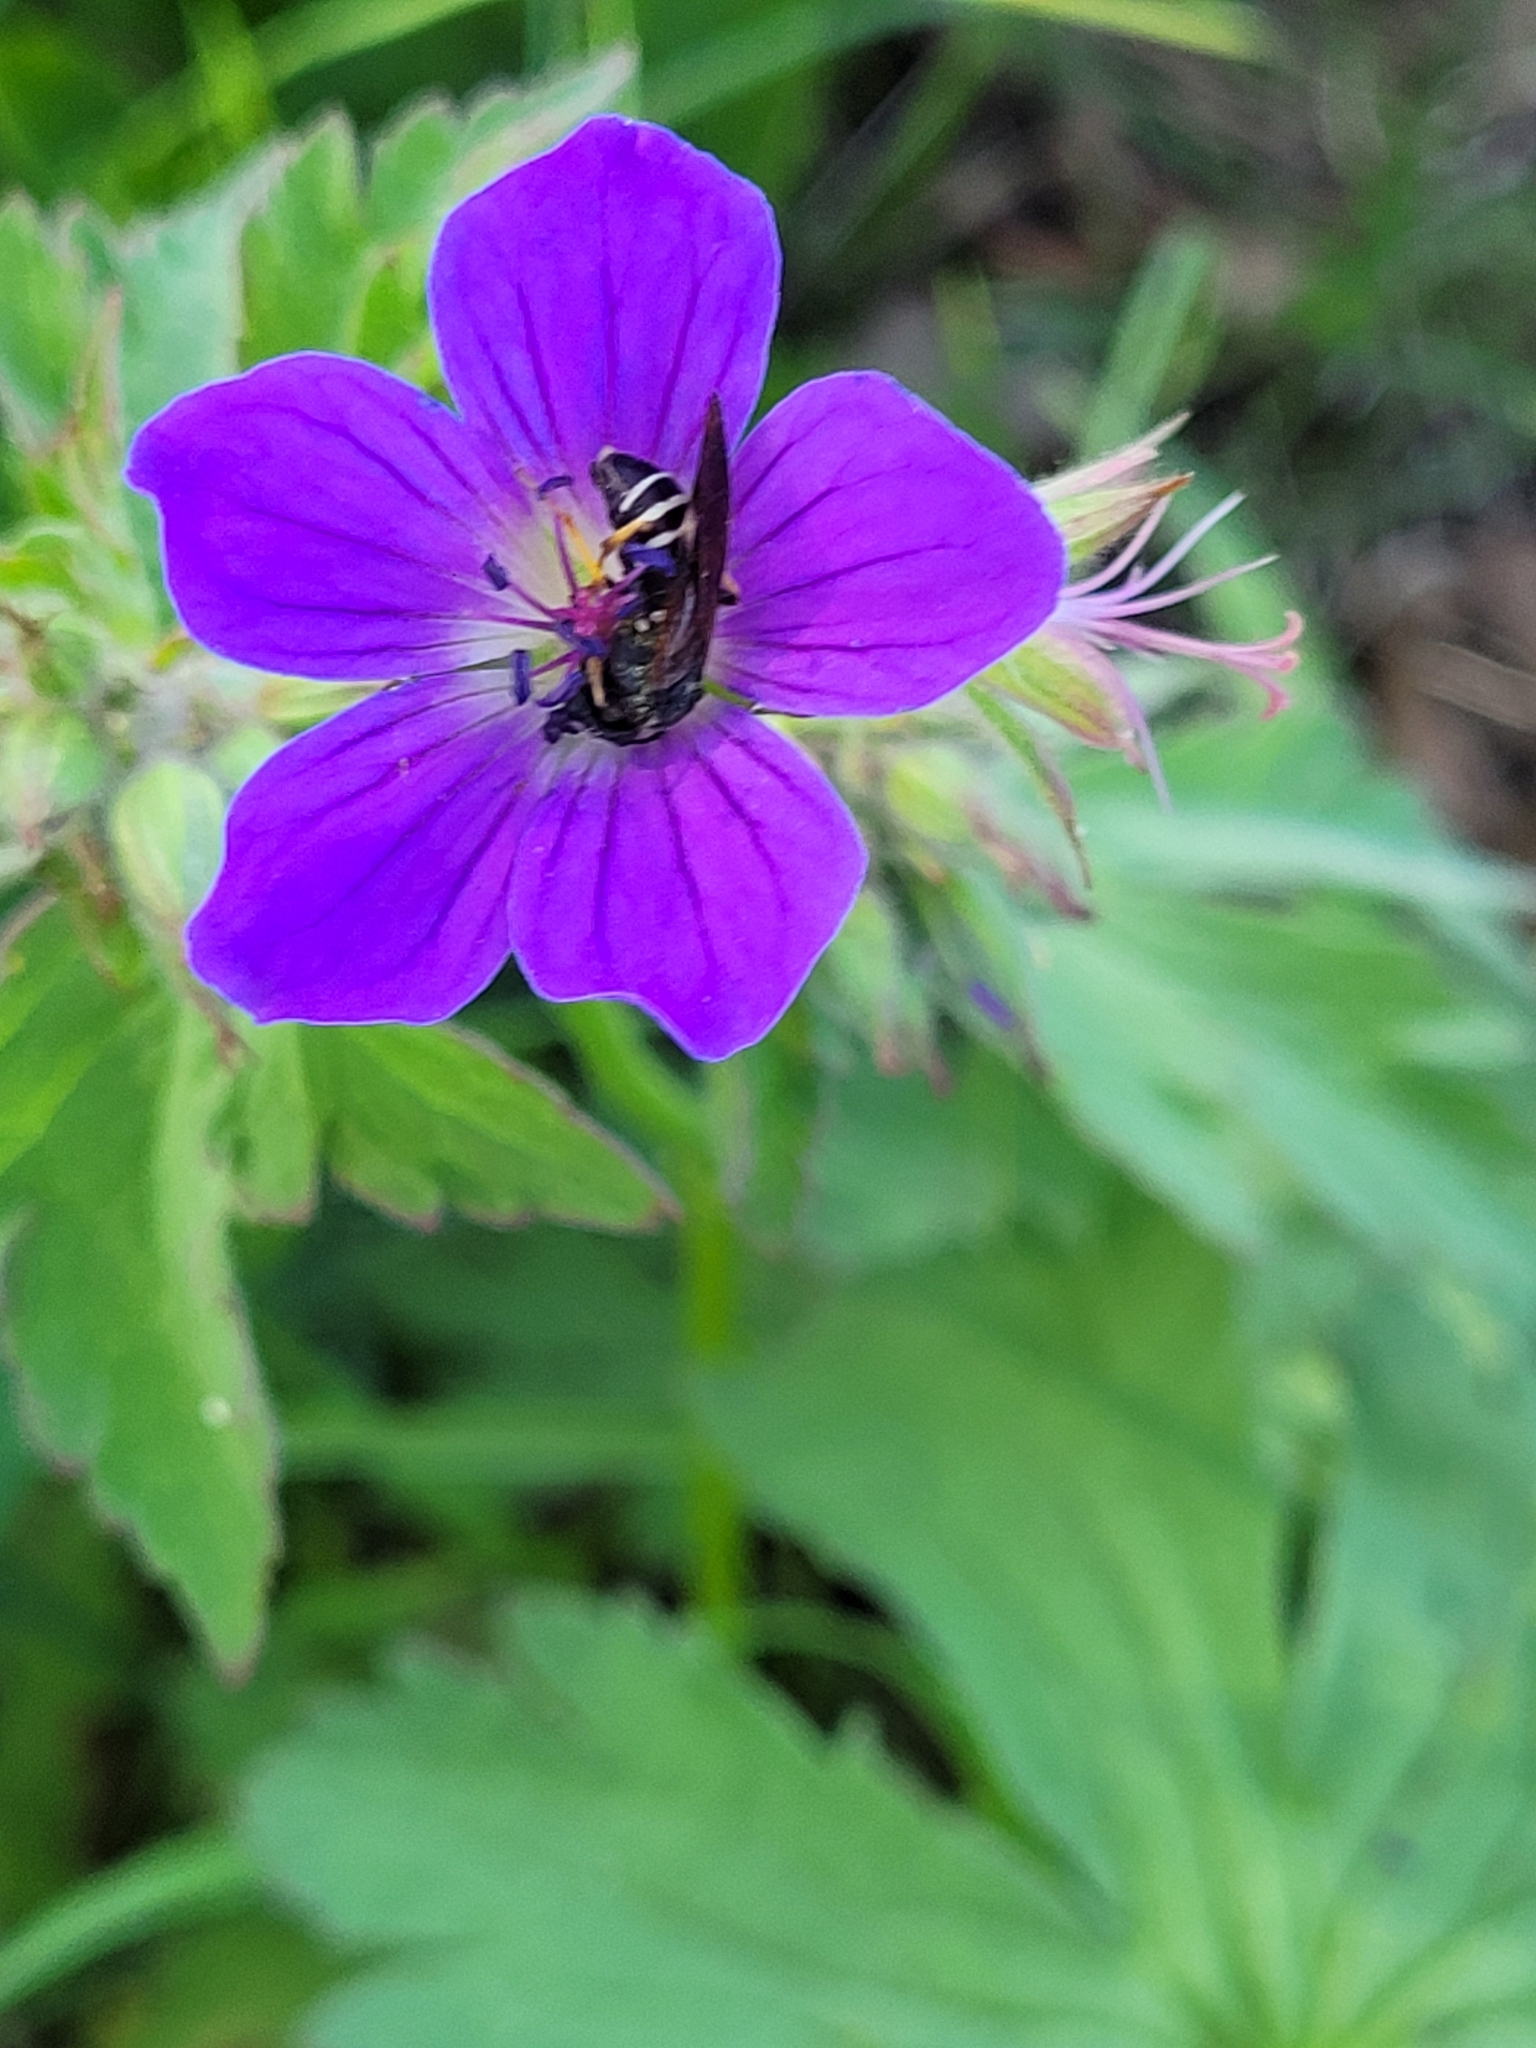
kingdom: Animalia
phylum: Arthropoda
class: Insecta
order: Hymenoptera
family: Tenthredinidae
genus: Tenthredo
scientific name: Tenthredo koehleri
